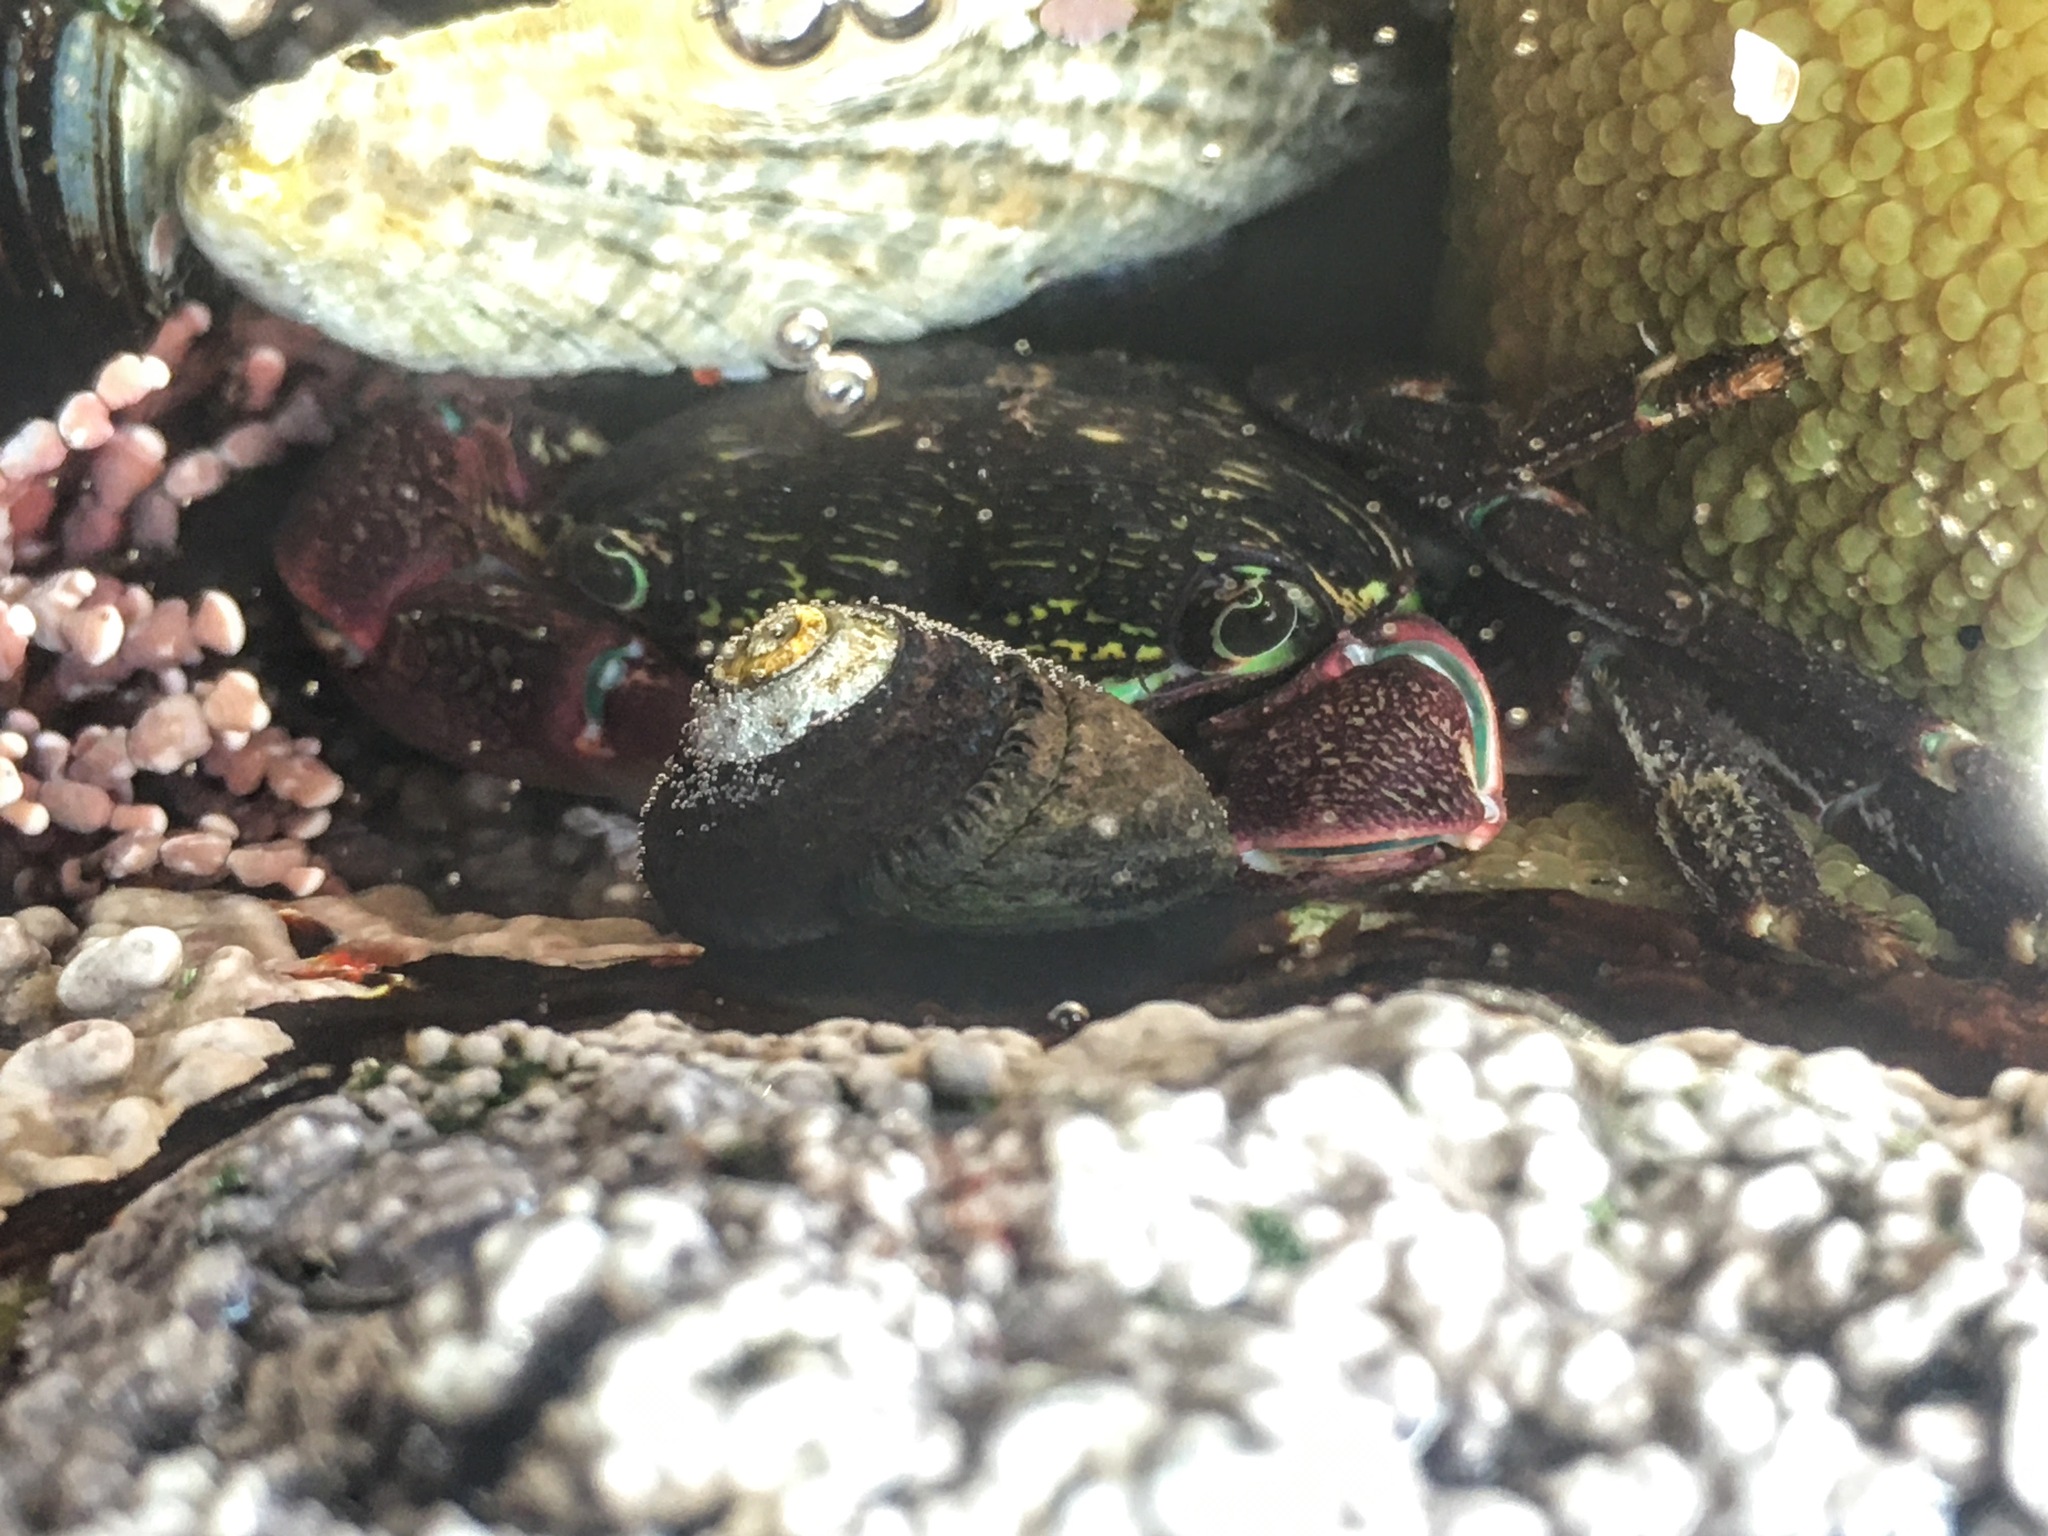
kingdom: Animalia
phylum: Arthropoda
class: Malacostraca
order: Decapoda
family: Grapsidae
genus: Pachygrapsus
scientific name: Pachygrapsus crassipes
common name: Striped shore crab
